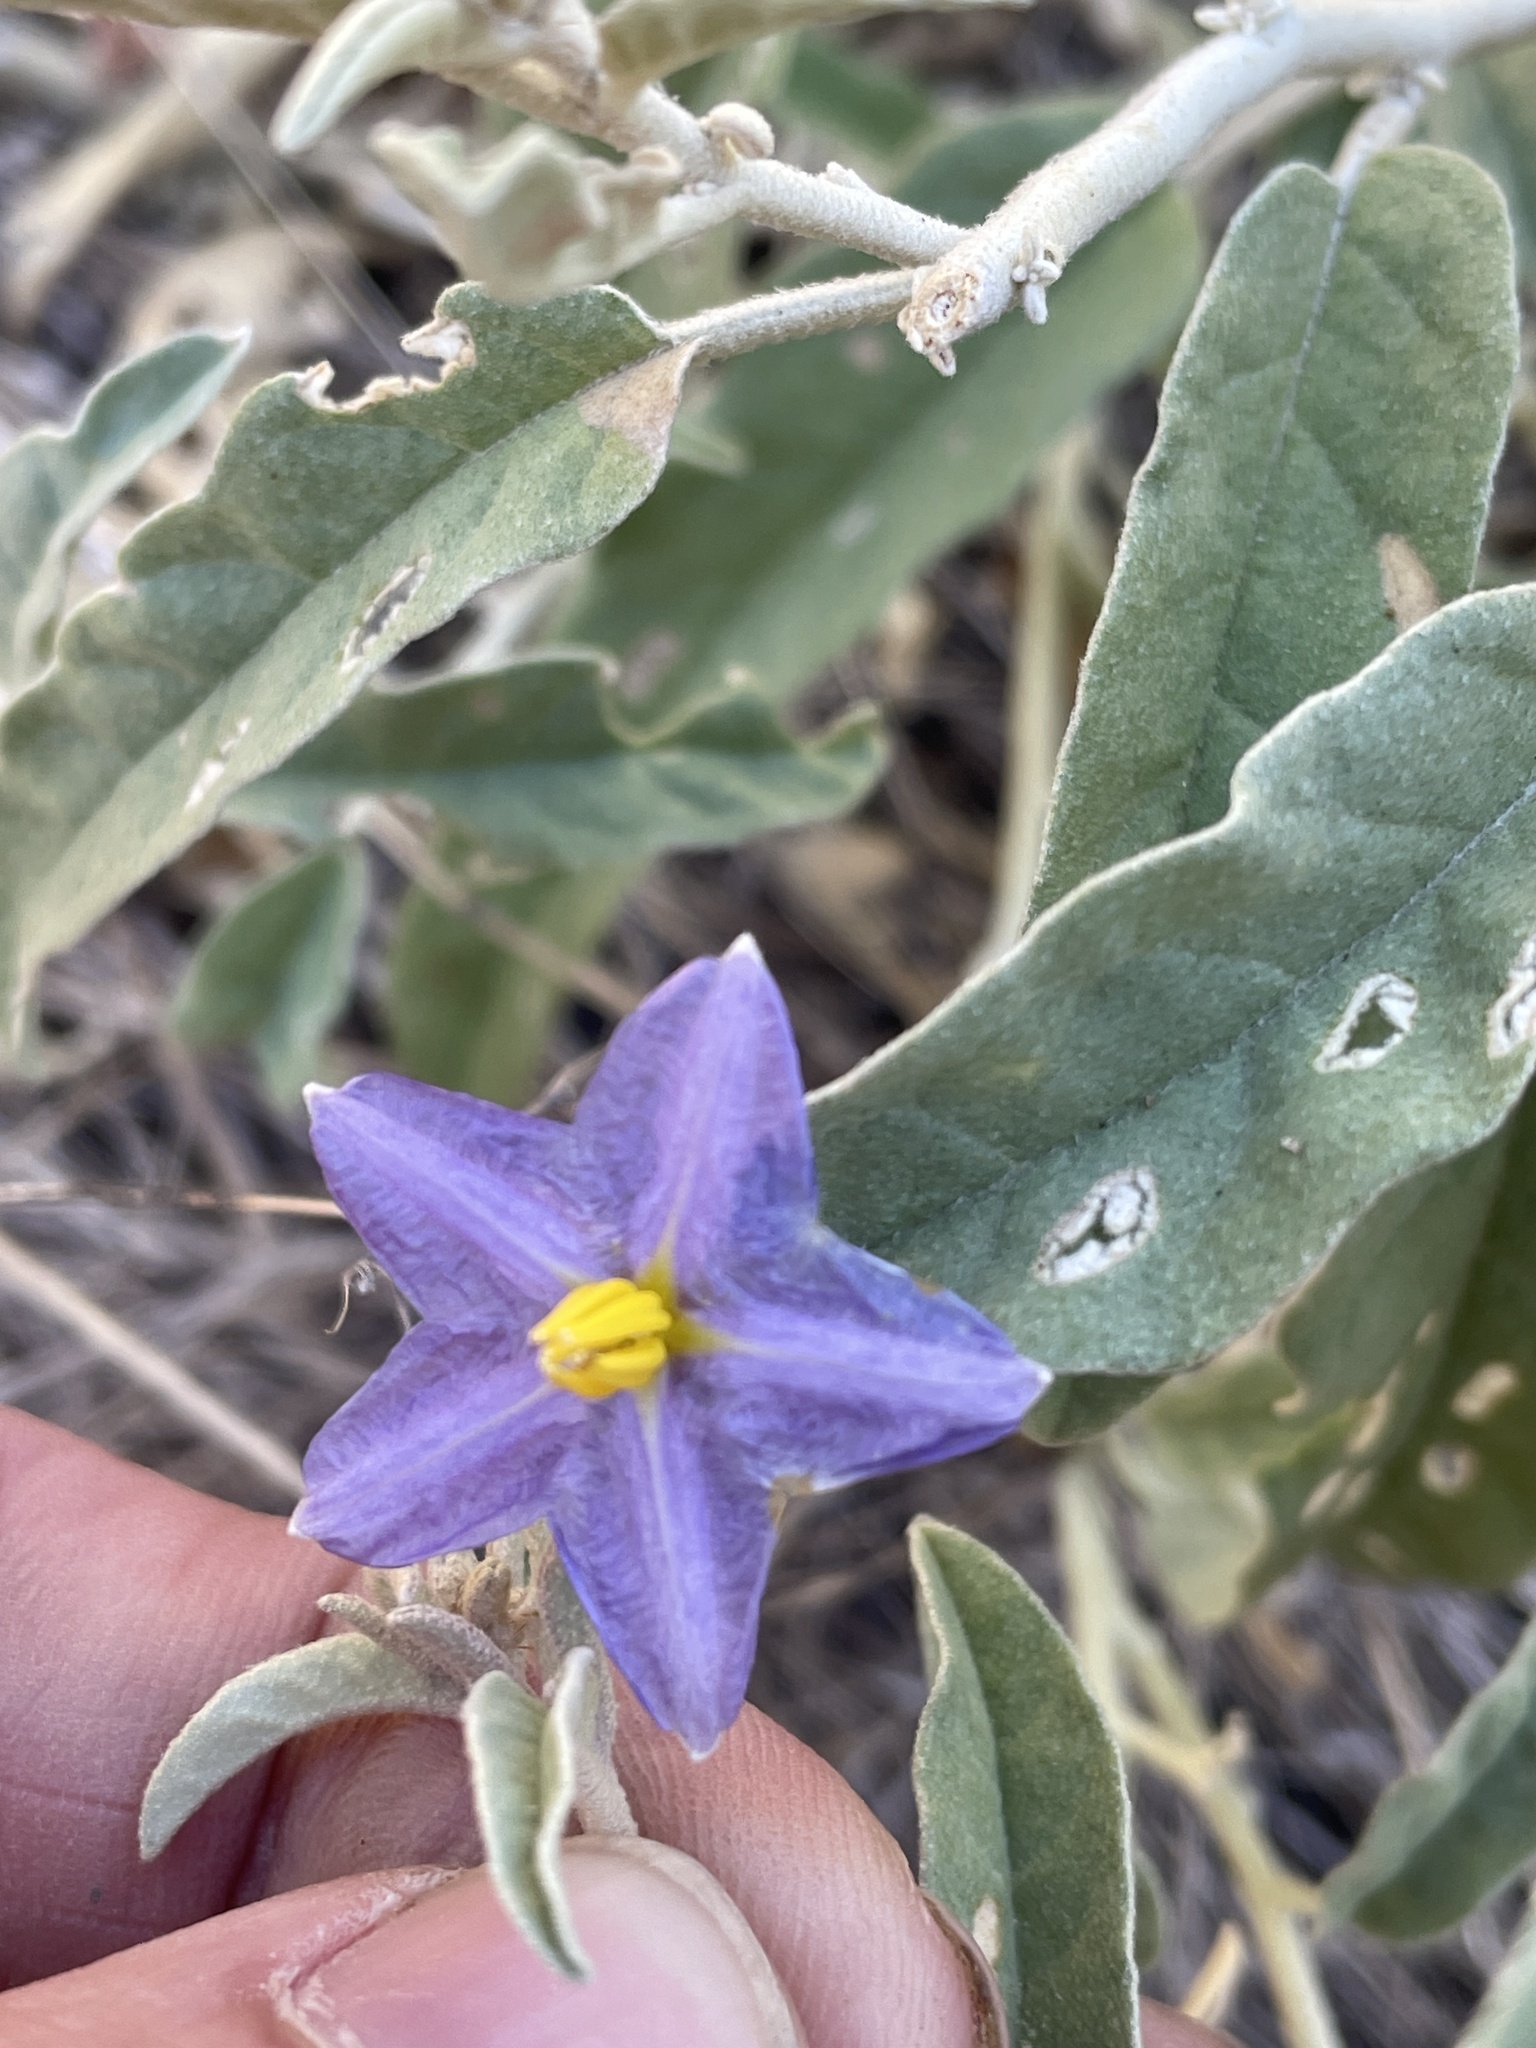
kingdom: Plantae
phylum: Tracheophyta
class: Magnoliopsida
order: Solanales
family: Solanaceae
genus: Solanum
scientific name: Solanum elaeagnifolium
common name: Silverleaf nightshade
